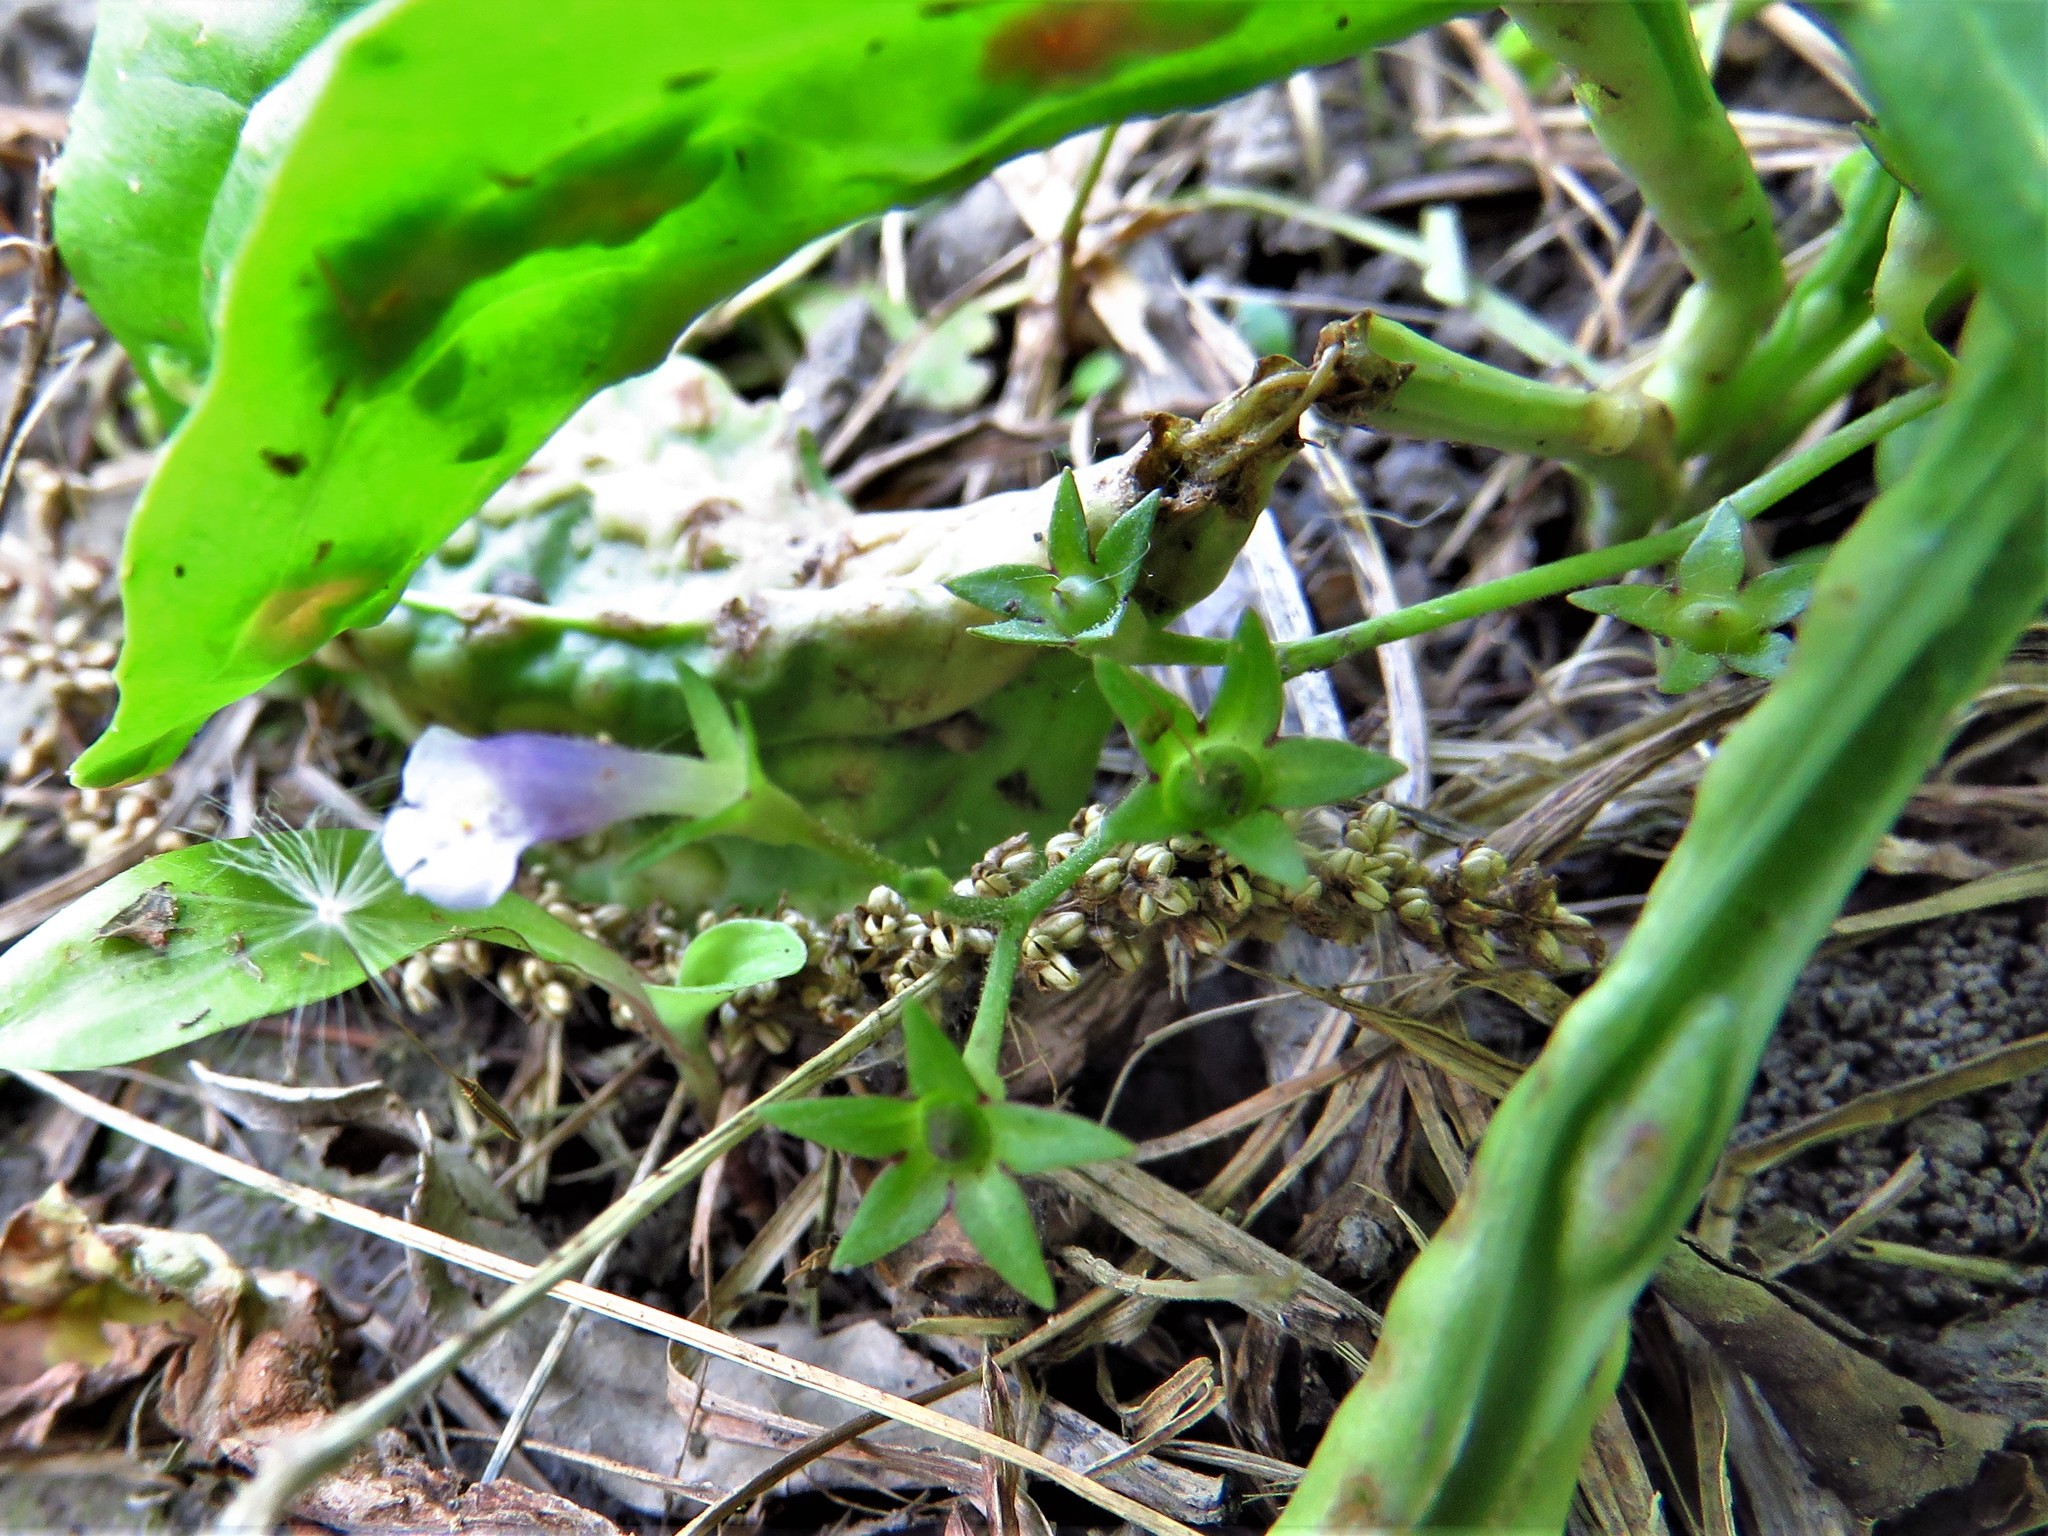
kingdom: Plantae
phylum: Tracheophyta
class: Magnoliopsida
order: Lamiales
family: Mazaceae
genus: Mazus
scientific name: Mazus pumilus
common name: Japanese mazus
